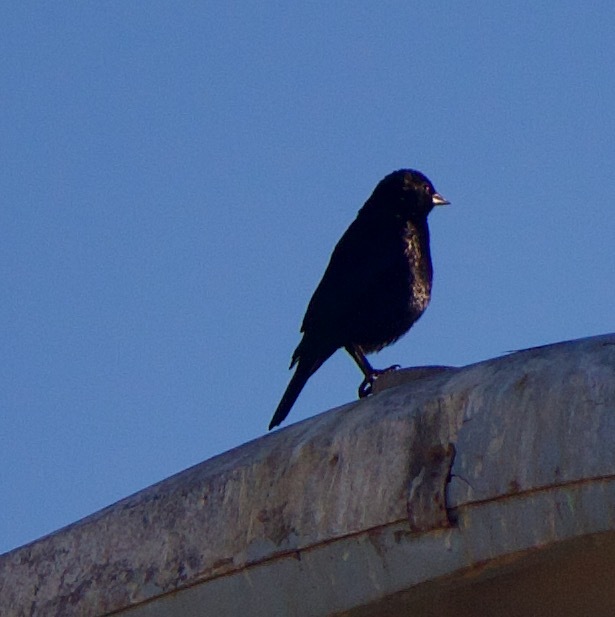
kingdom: Animalia
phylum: Chordata
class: Aves
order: Passeriformes
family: Icteridae
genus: Molothrus
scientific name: Molothrus bonariensis
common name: Shiny cowbird
